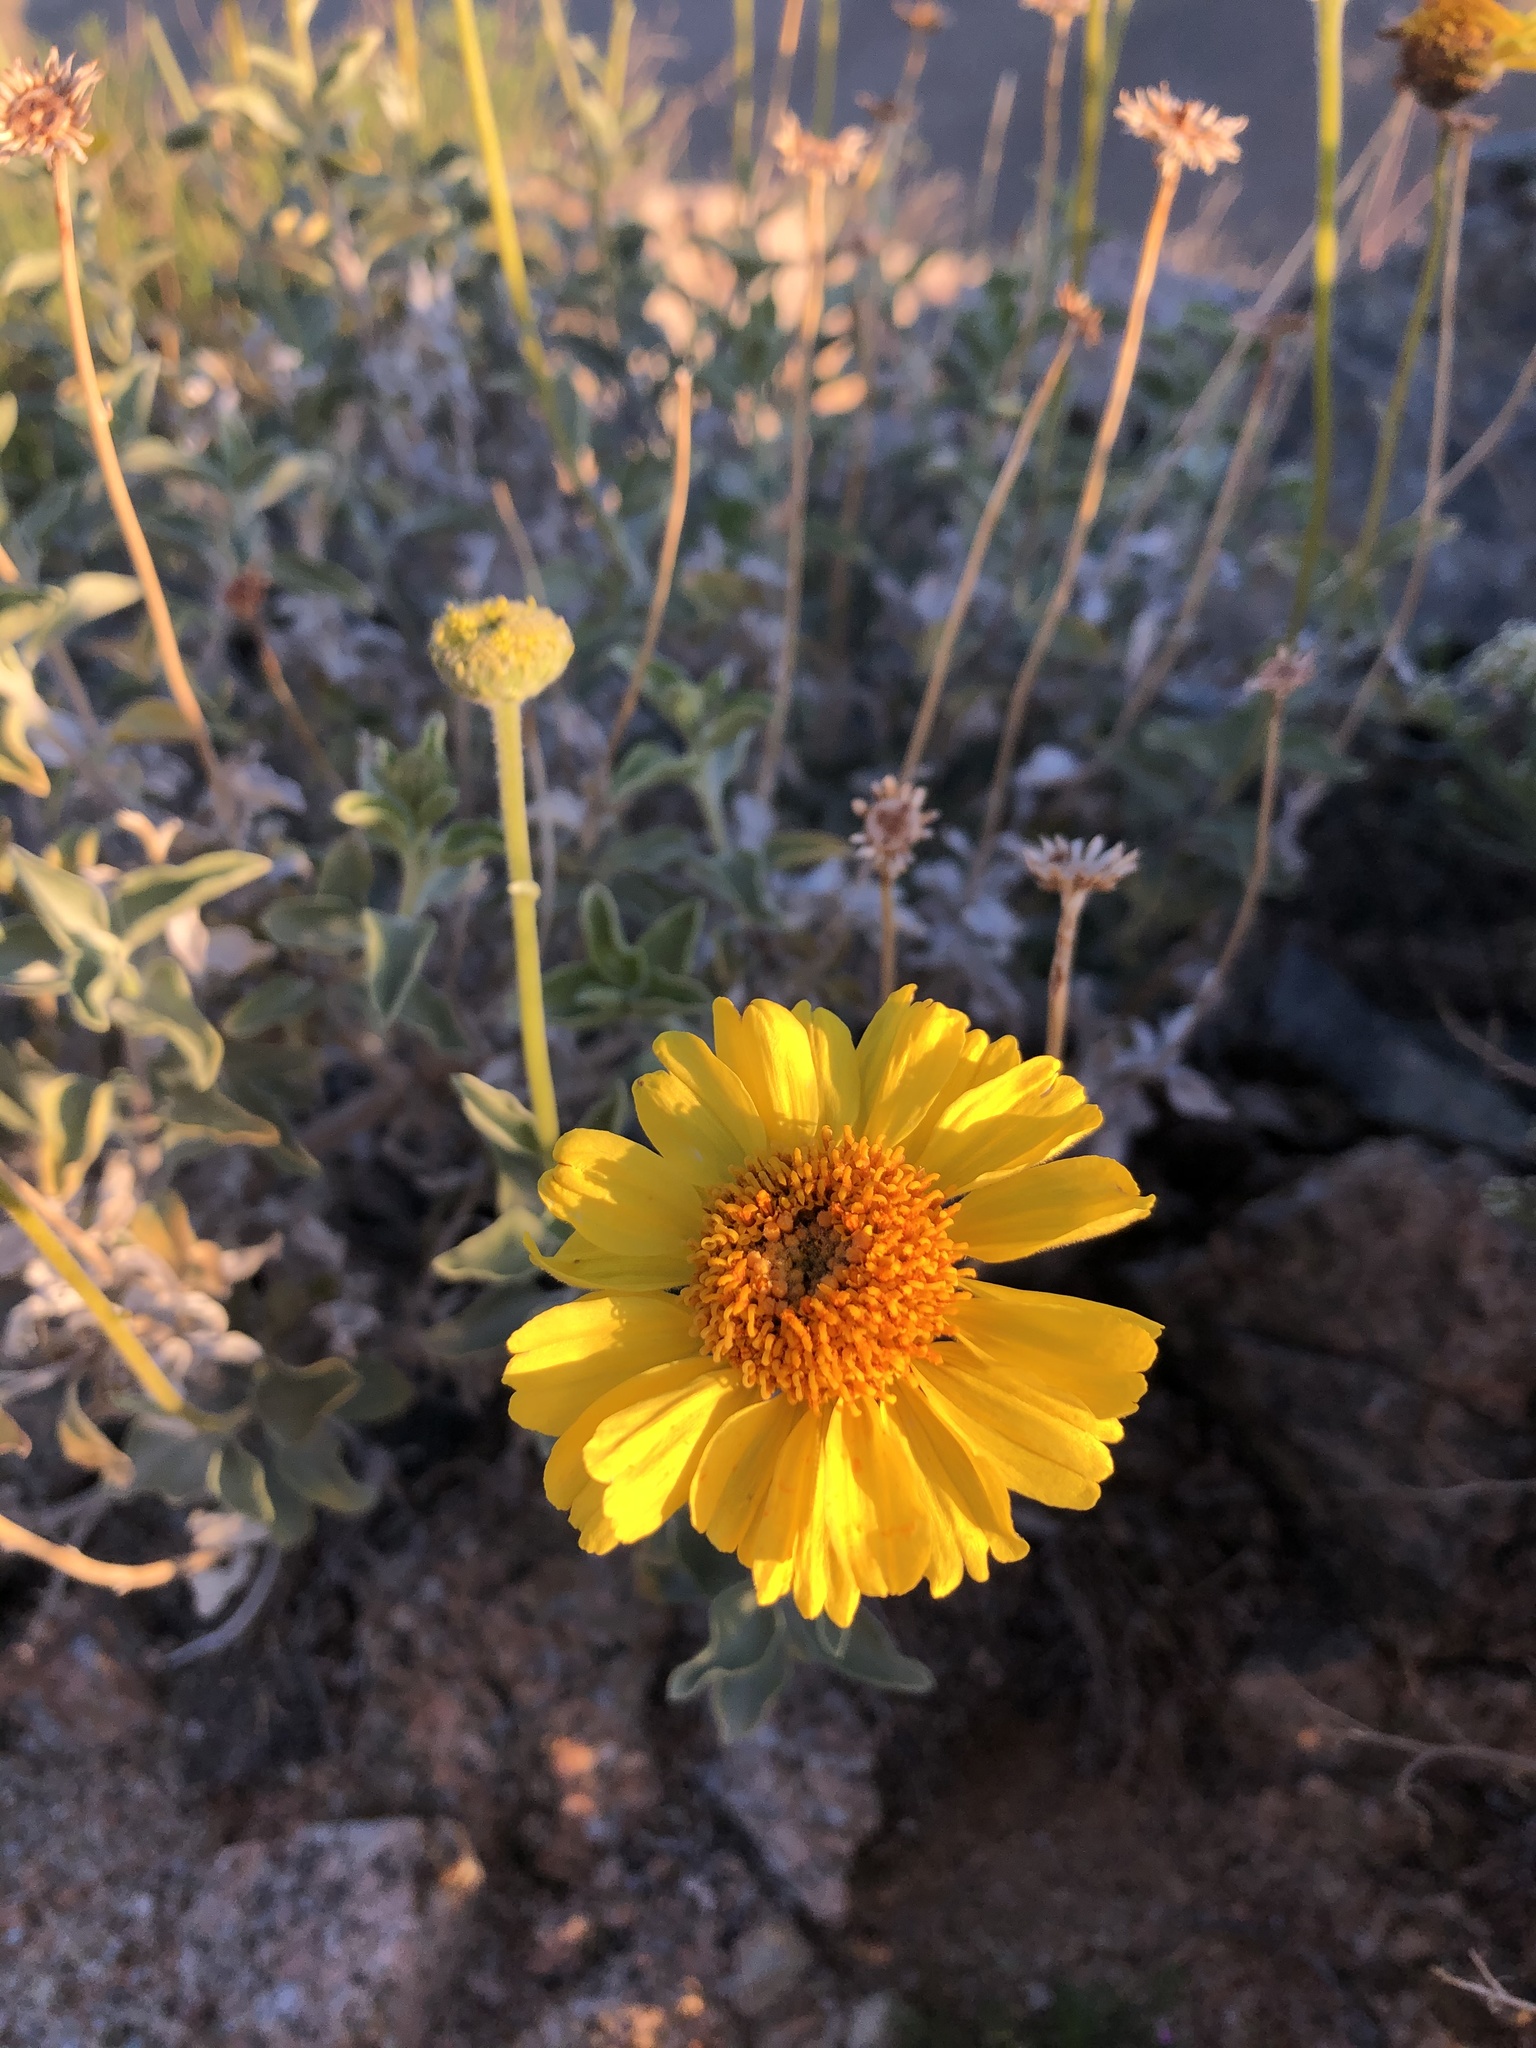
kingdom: Plantae
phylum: Tracheophyta
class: Magnoliopsida
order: Asterales
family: Asteraceae
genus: Encelia
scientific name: Encelia actoni
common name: Acton encelia
